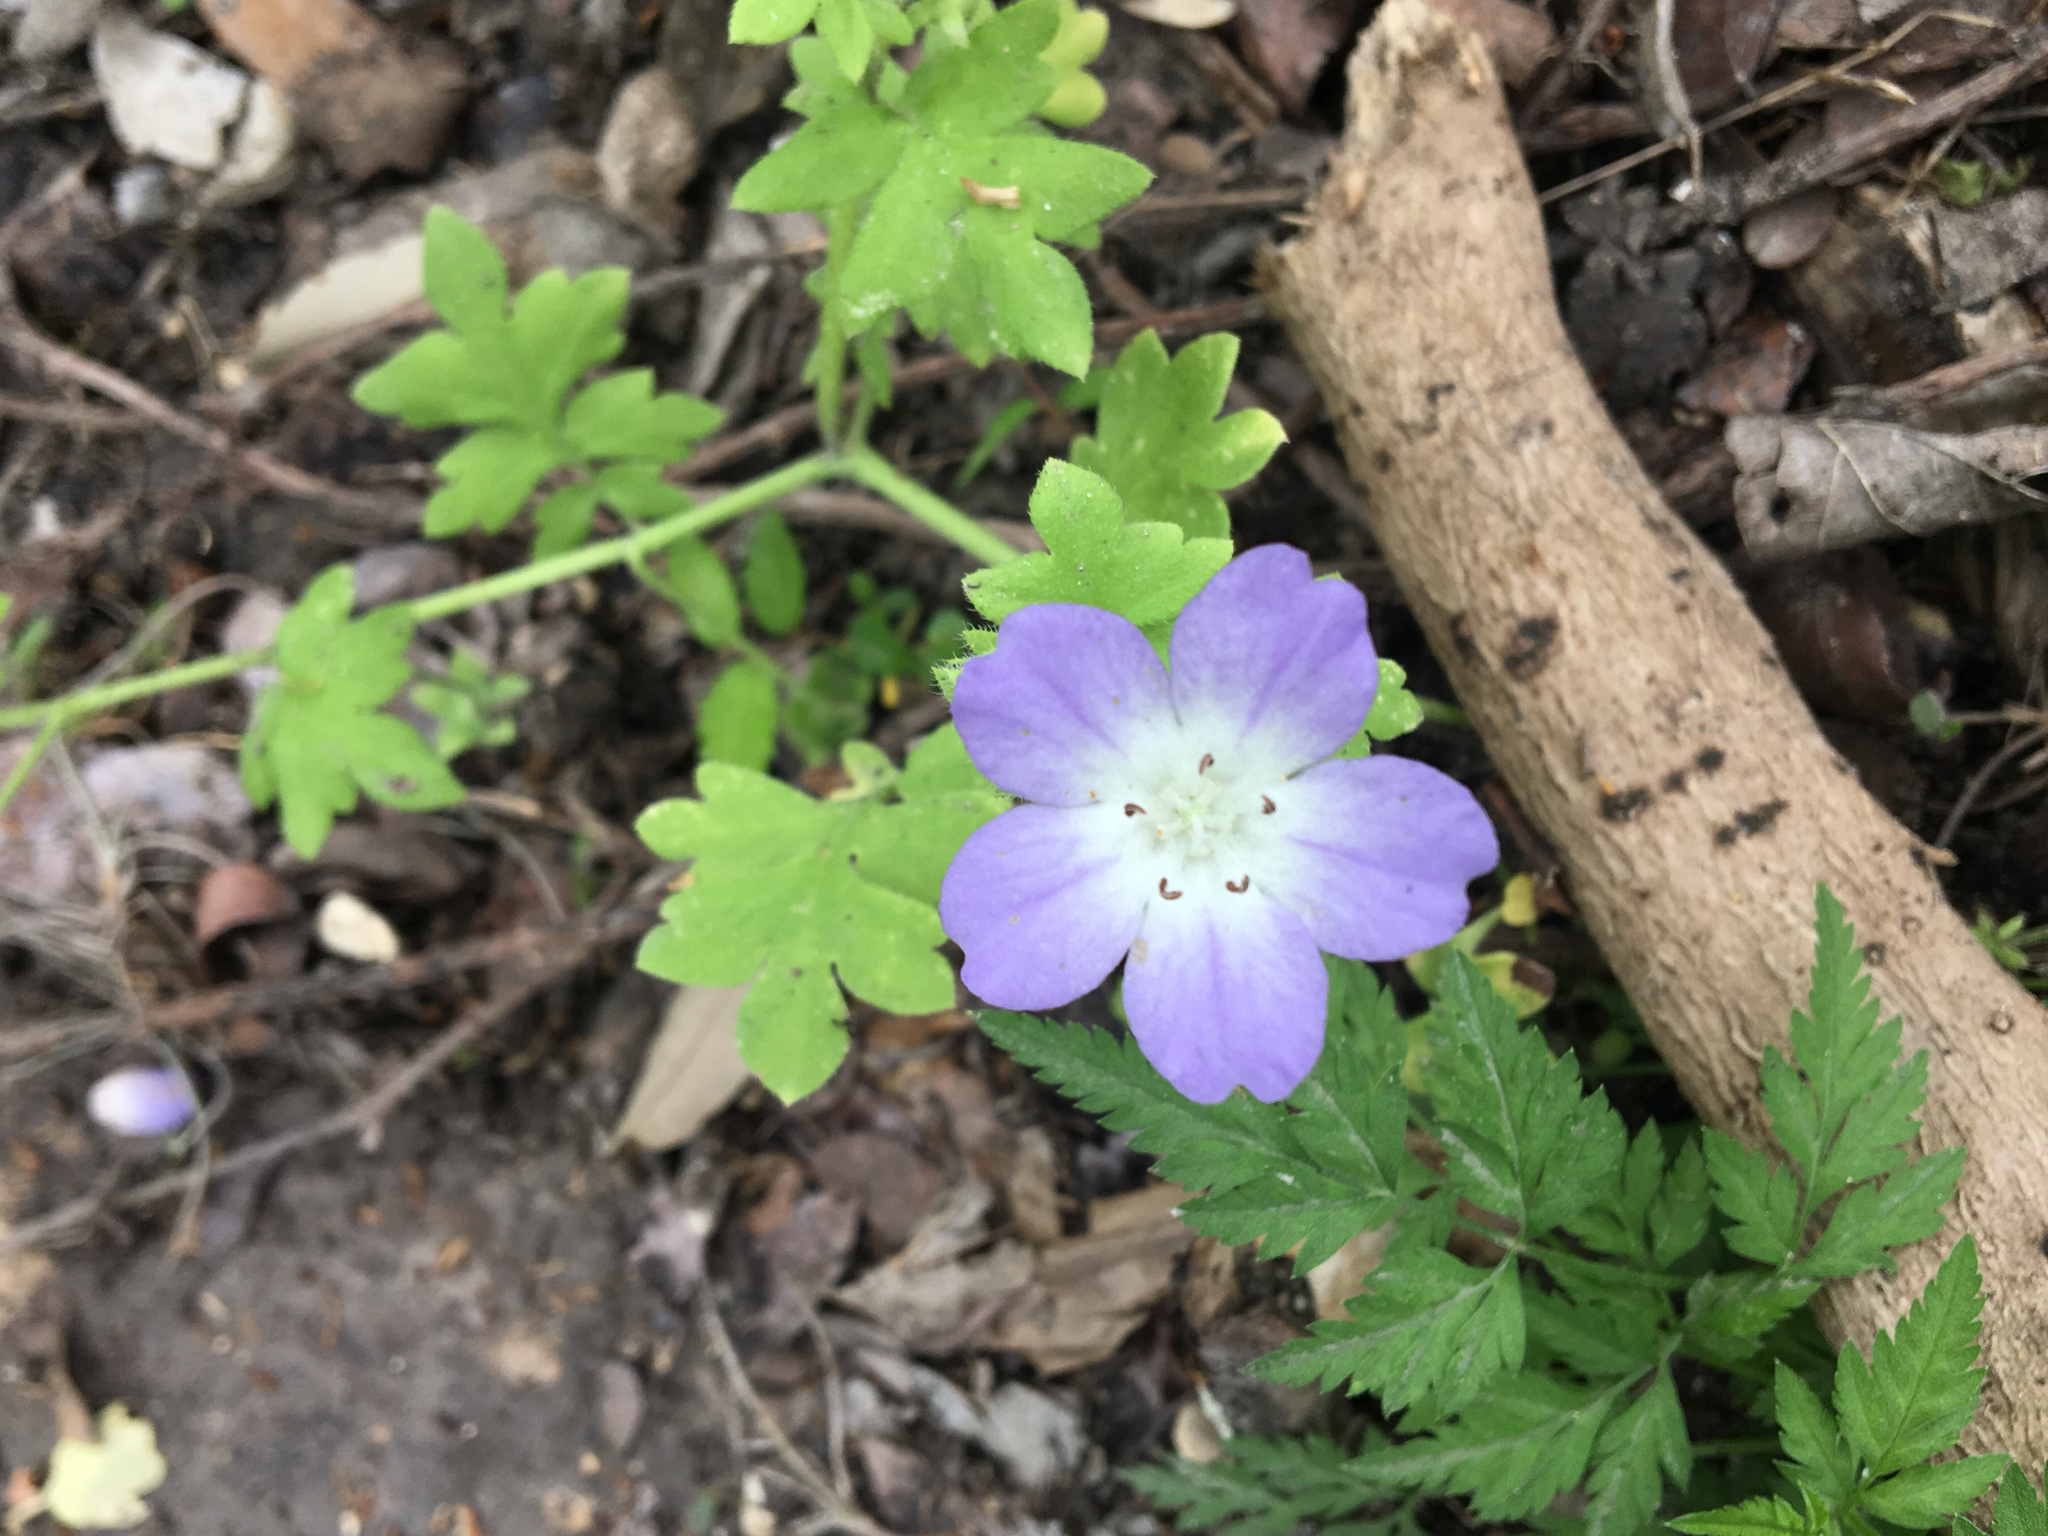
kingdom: Plantae
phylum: Tracheophyta
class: Magnoliopsida
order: Boraginales
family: Hydrophyllaceae
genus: Nemophila
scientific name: Nemophila phacelioides
